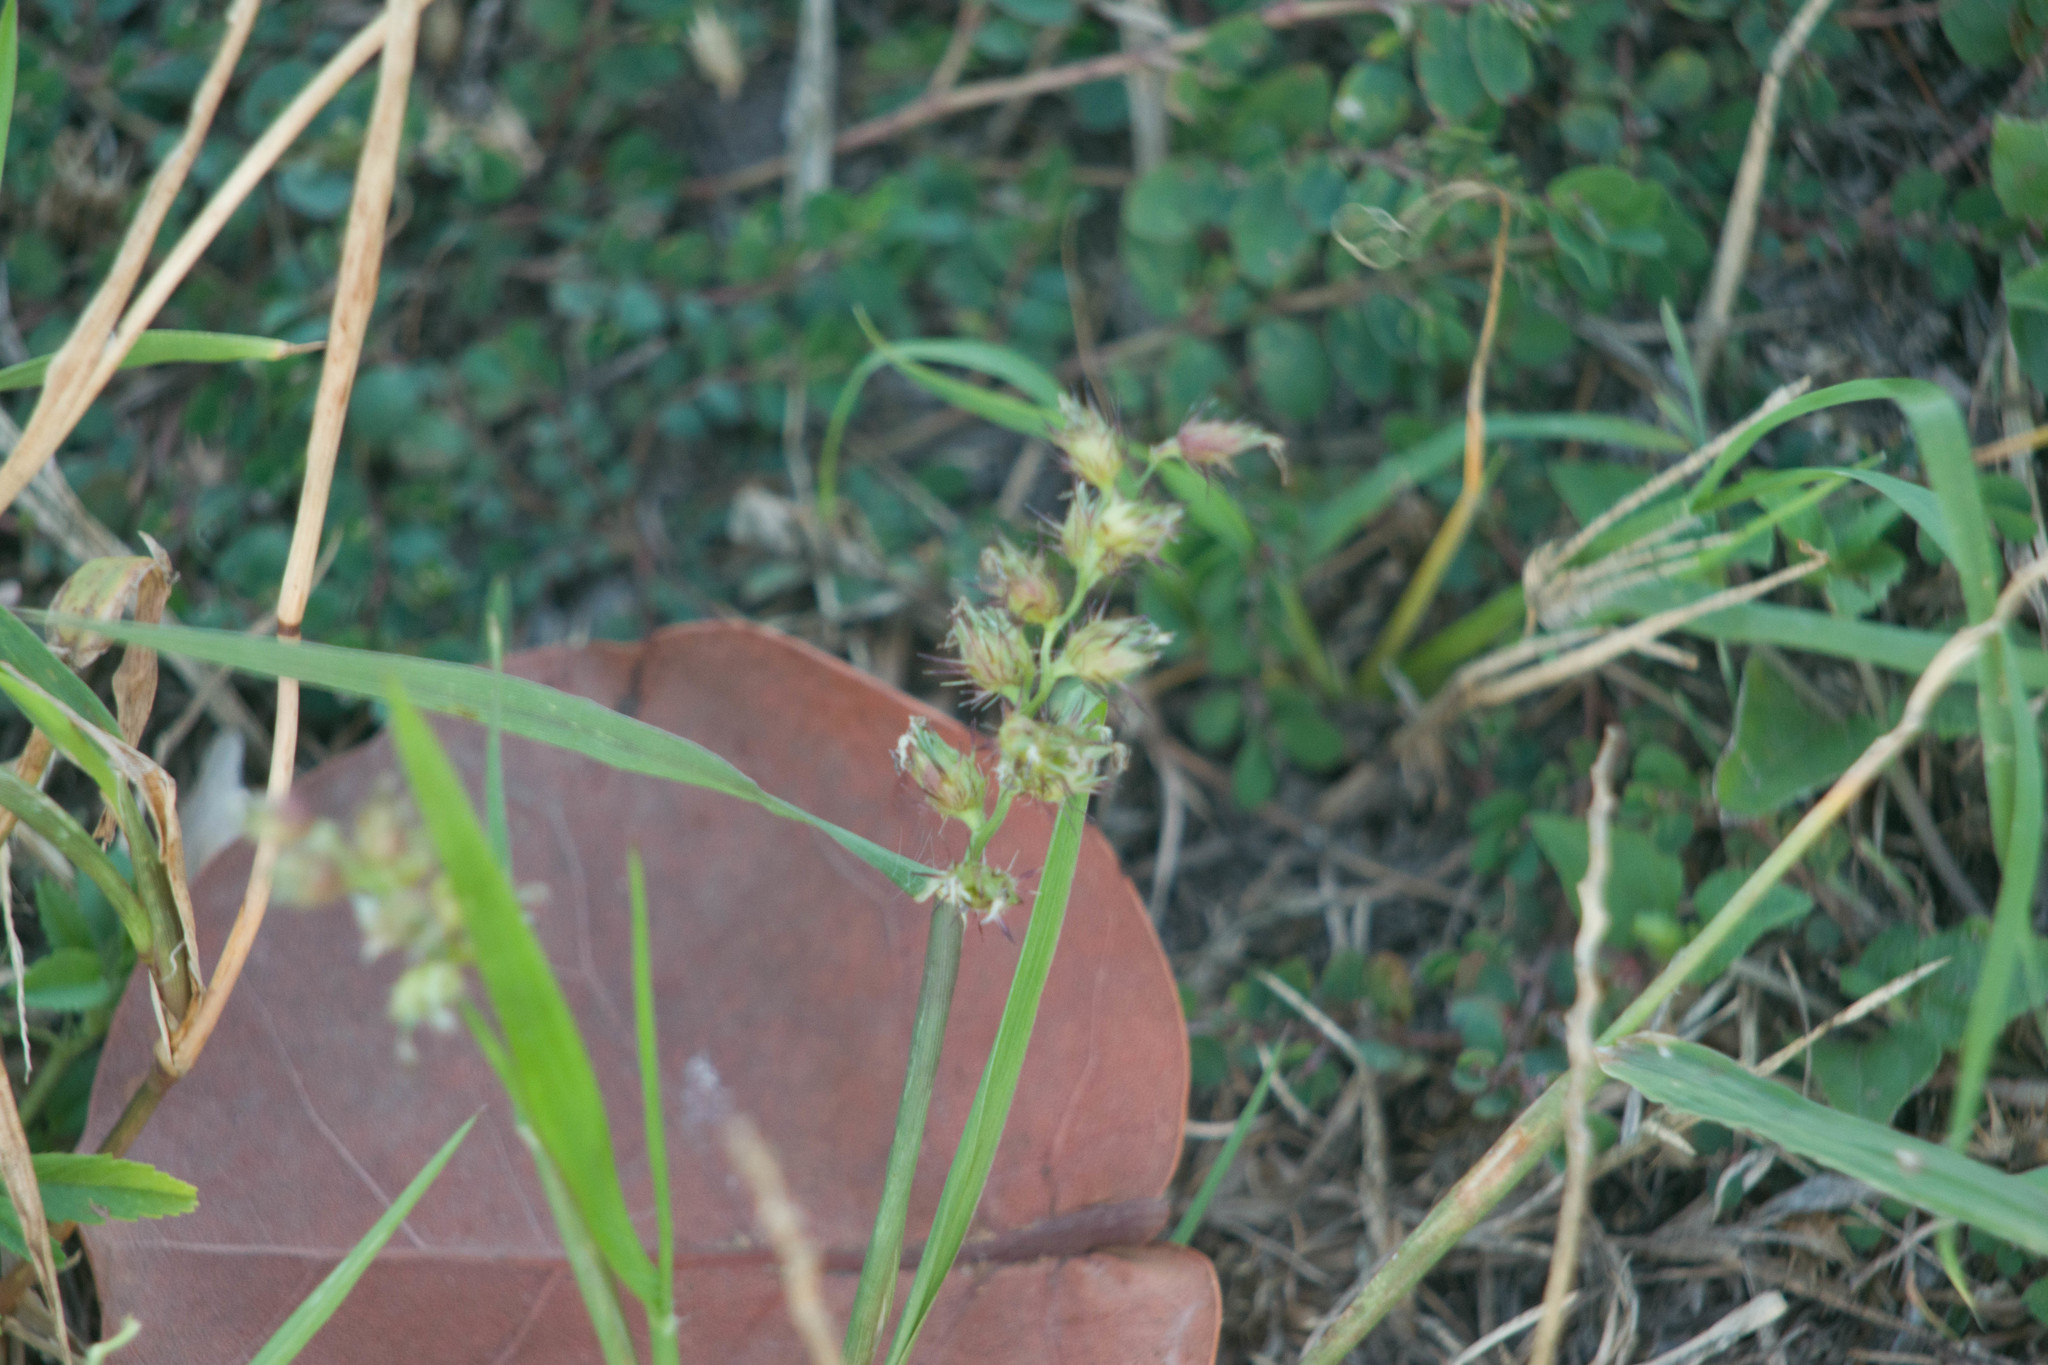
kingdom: Plantae
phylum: Tracheophyta
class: Liliopsida
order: Poales
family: Poaceae
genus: Cenchrus
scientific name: Cenchrus echinatus
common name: Southern sandbur
